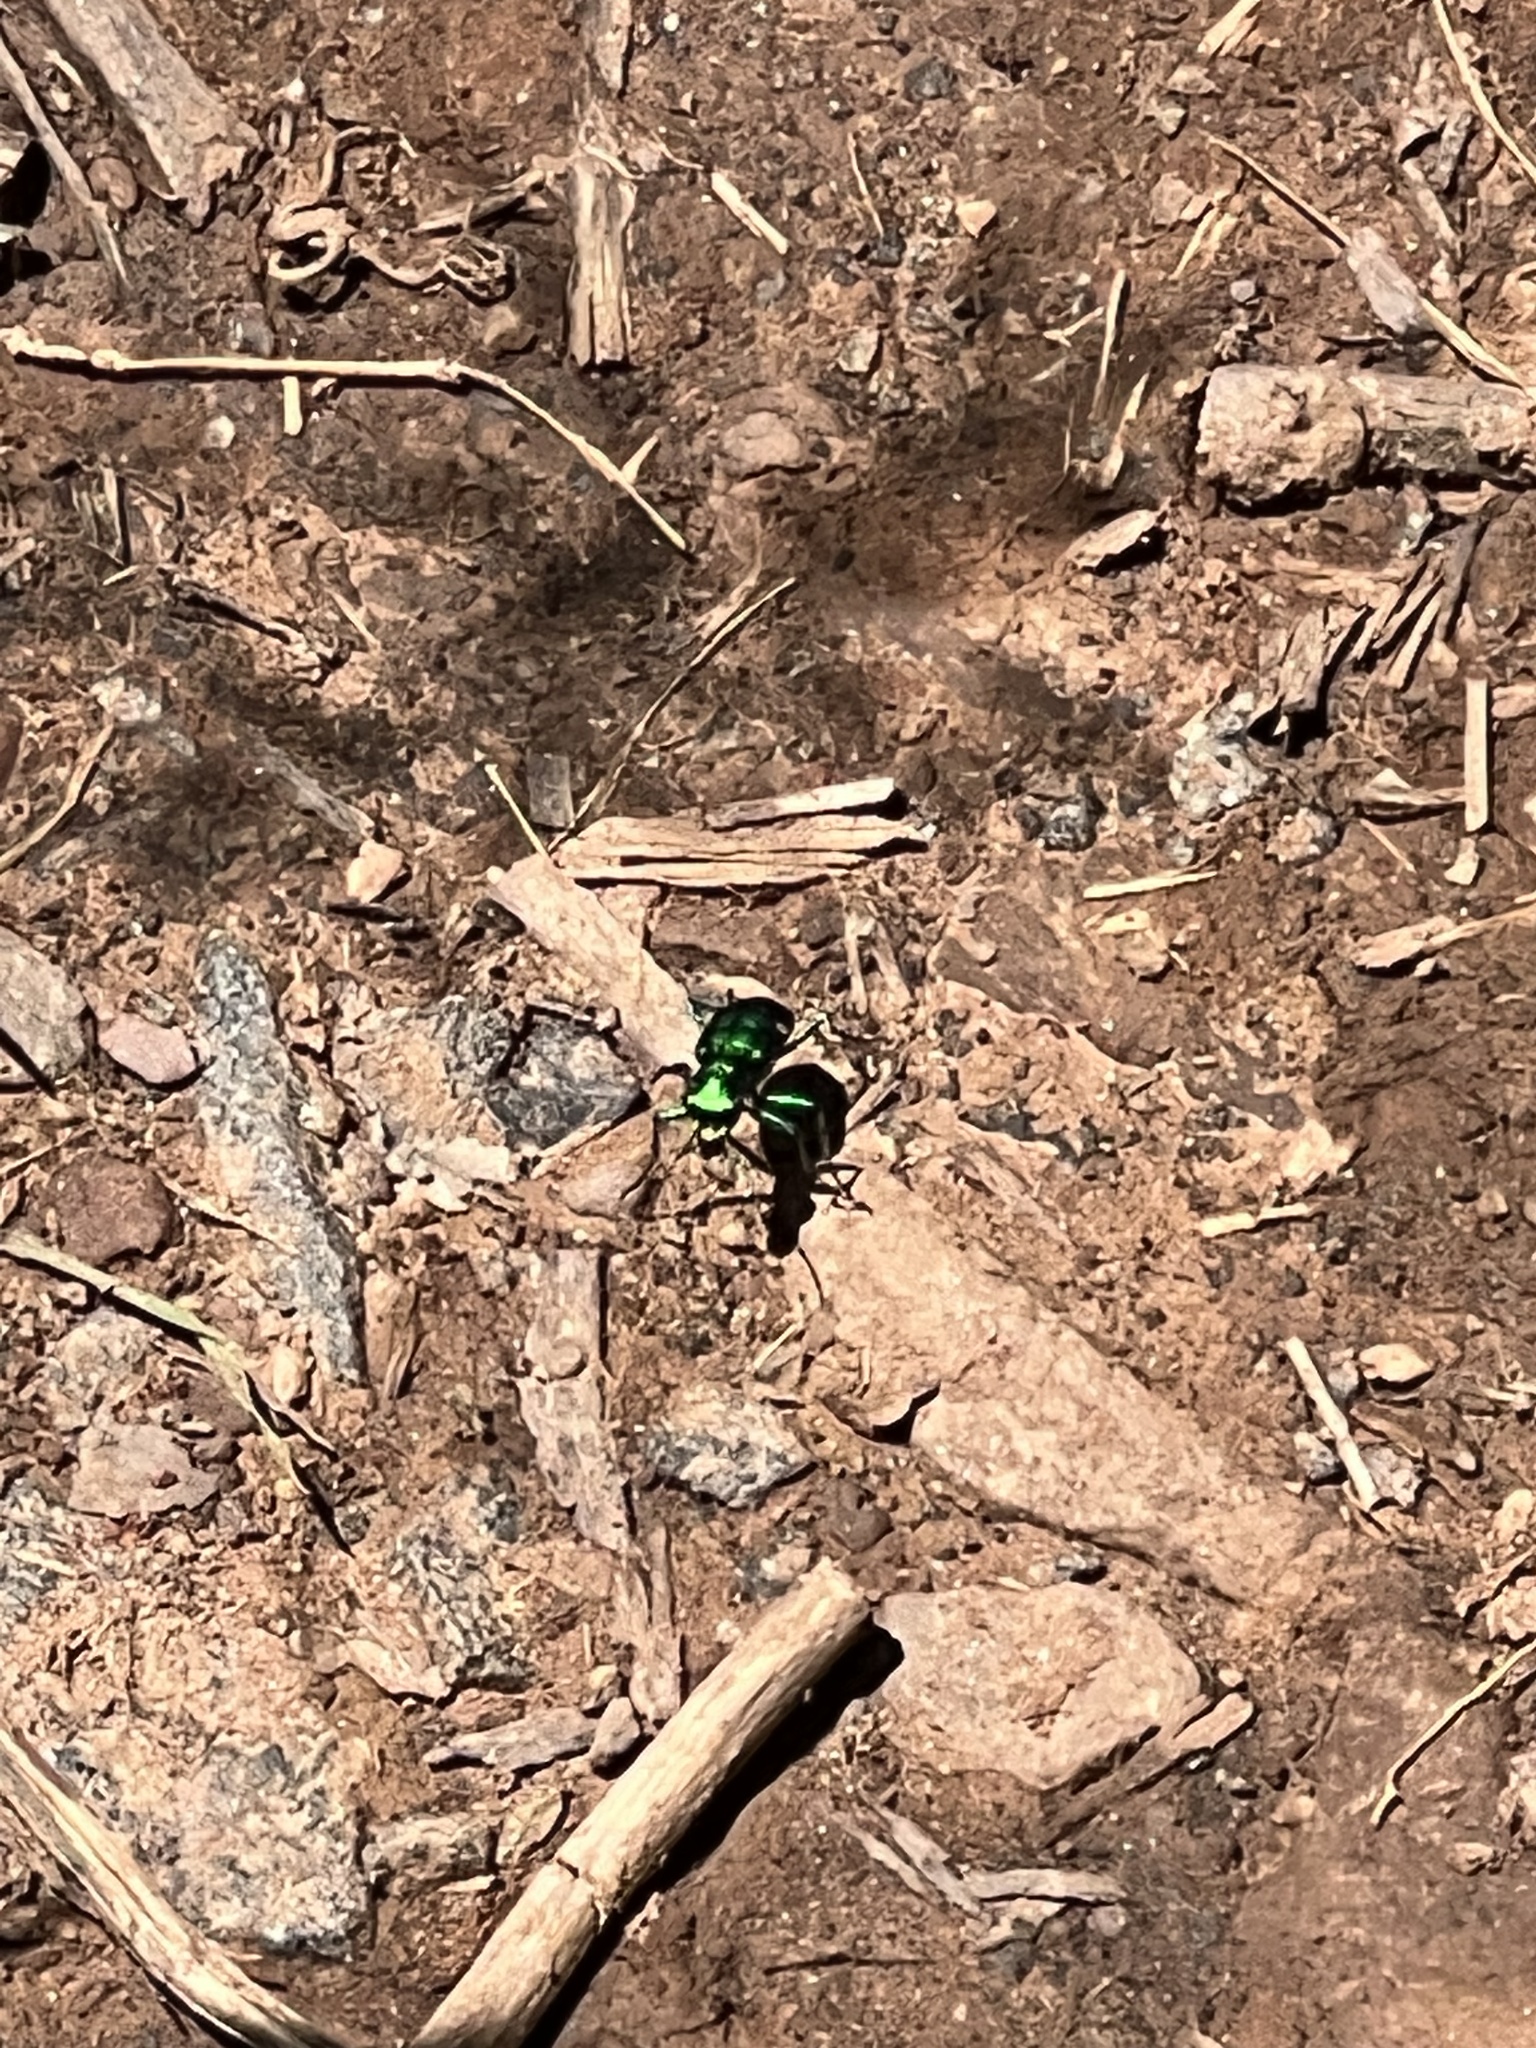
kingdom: Animalia
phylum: Arthropoda
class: Insecta
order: Coleoptera
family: Carabidae
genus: Cicindela
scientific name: Cicindela sexguttata
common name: Six-spotted tiger beetle
